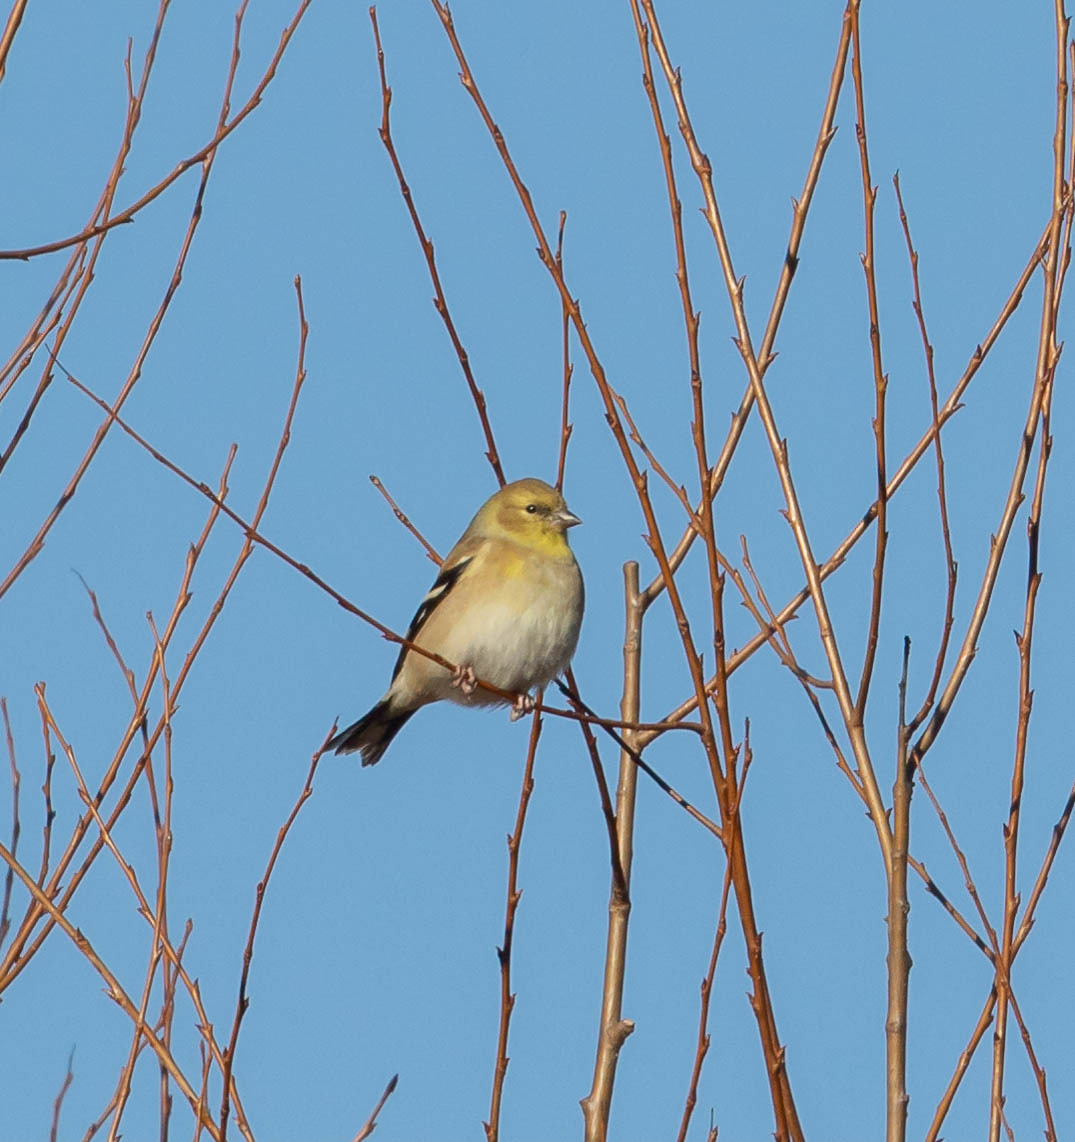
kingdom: Animalia
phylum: Chordata
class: Aves
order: Passeriformes
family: Fringillidae
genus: Spinus
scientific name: Spinus tristis
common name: American goldfinch
